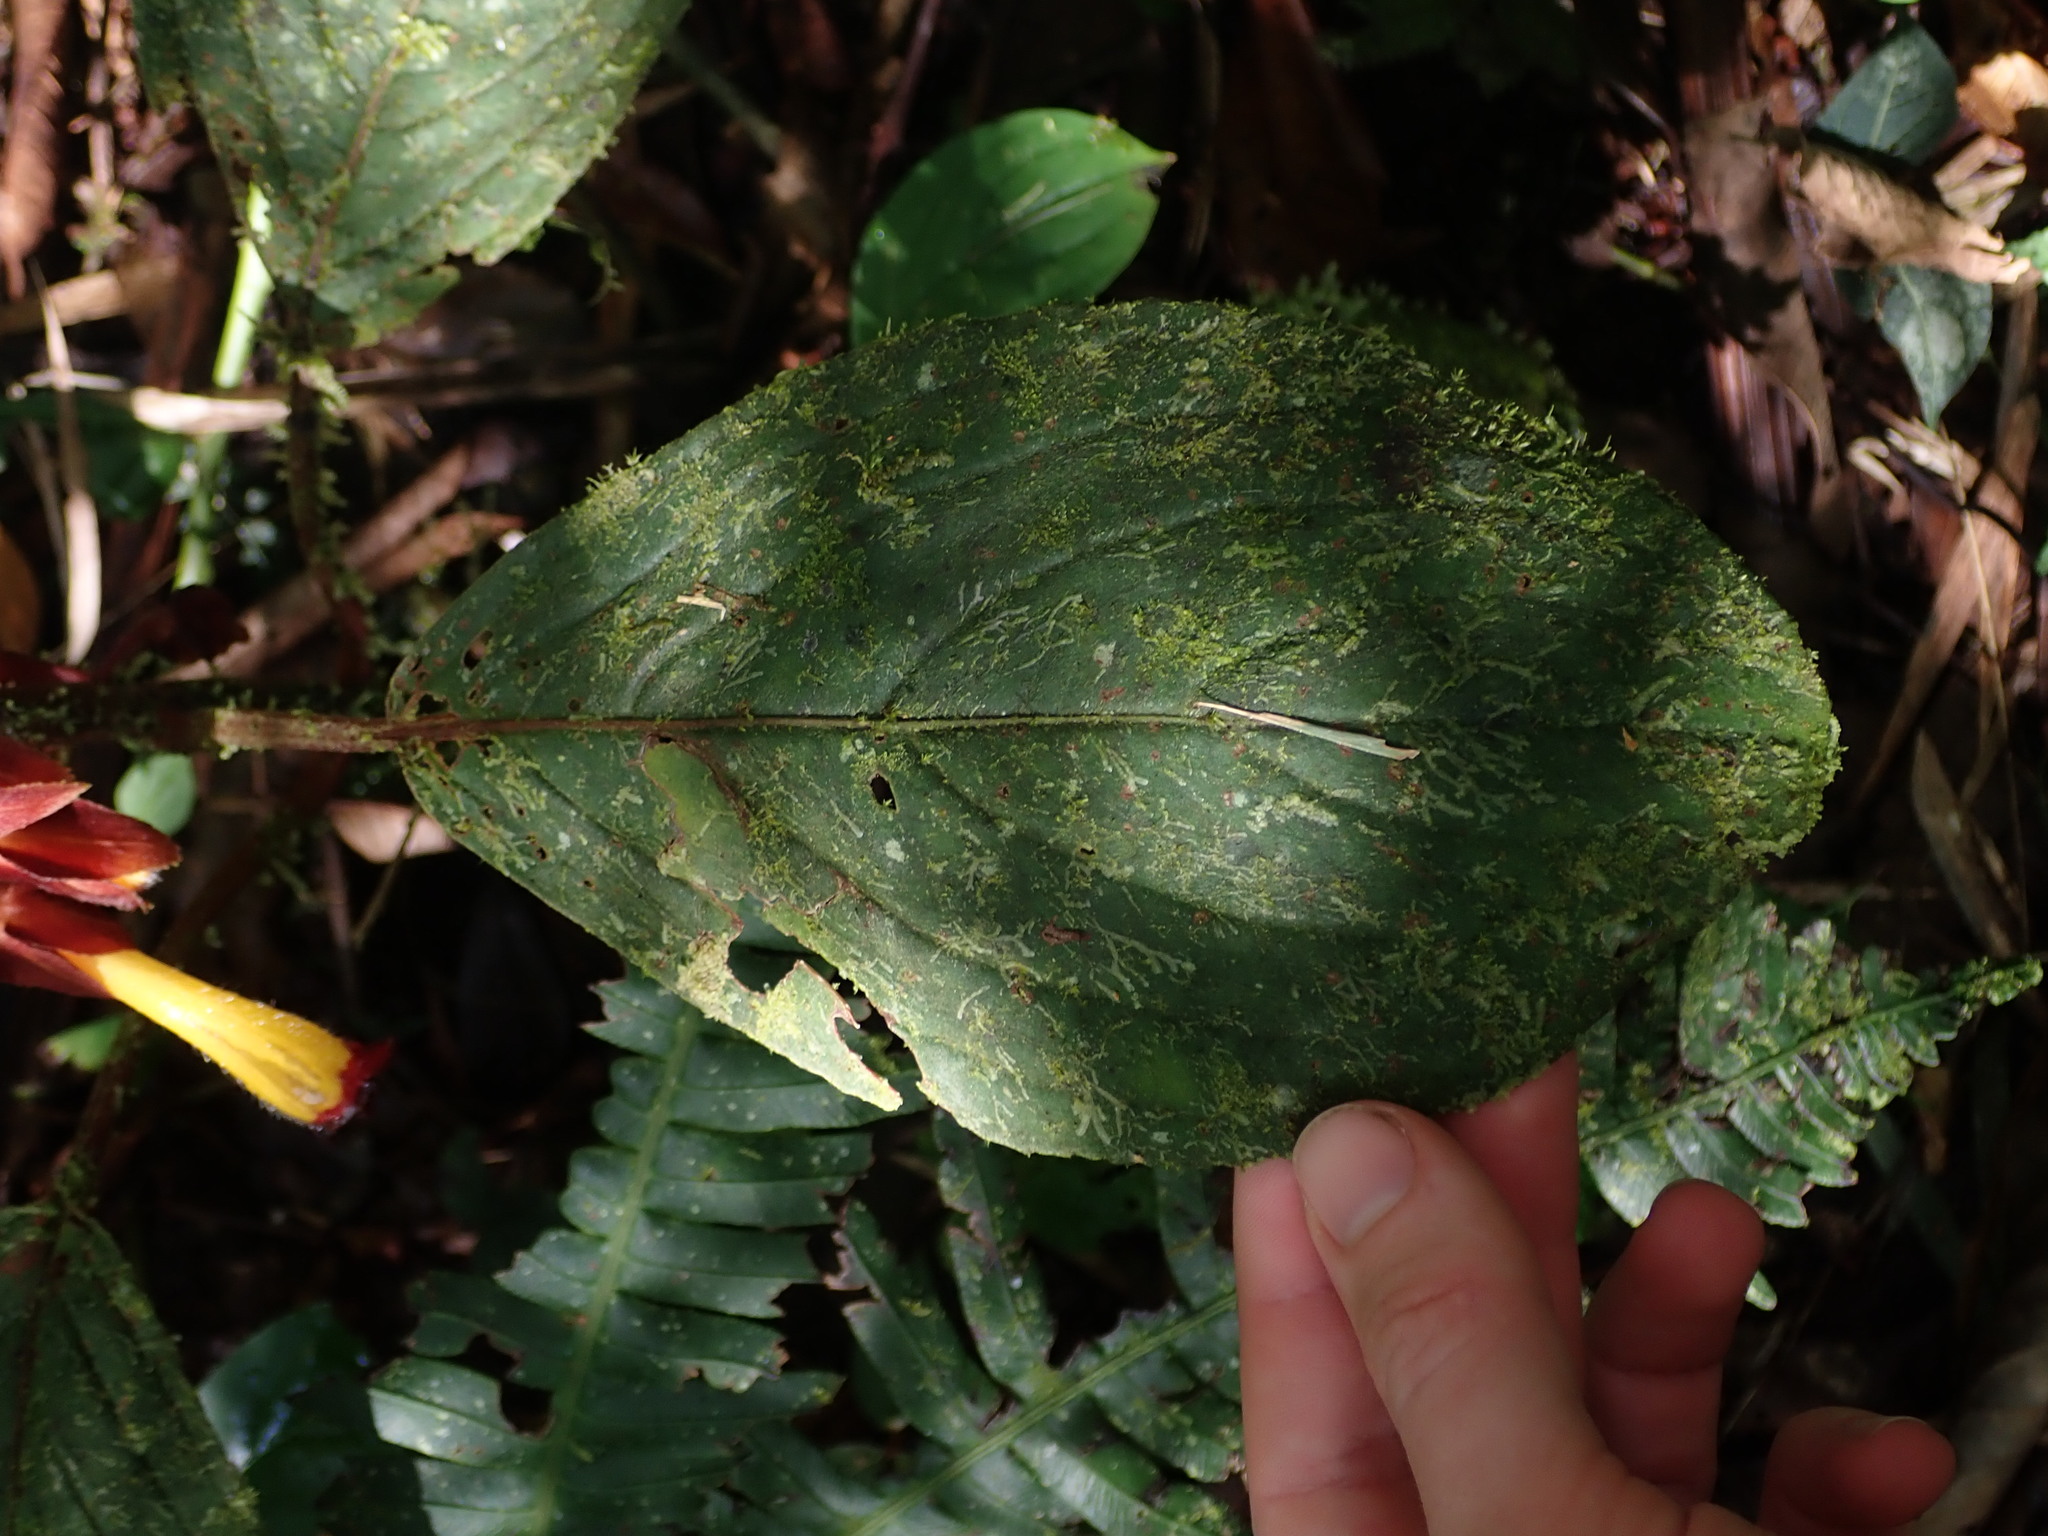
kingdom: Plantae
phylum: Tracheophyta
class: Magnoliopsida
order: Lamiales
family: Gesneriaceae
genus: Glossoloma
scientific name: Glossoloma tetragonoides
